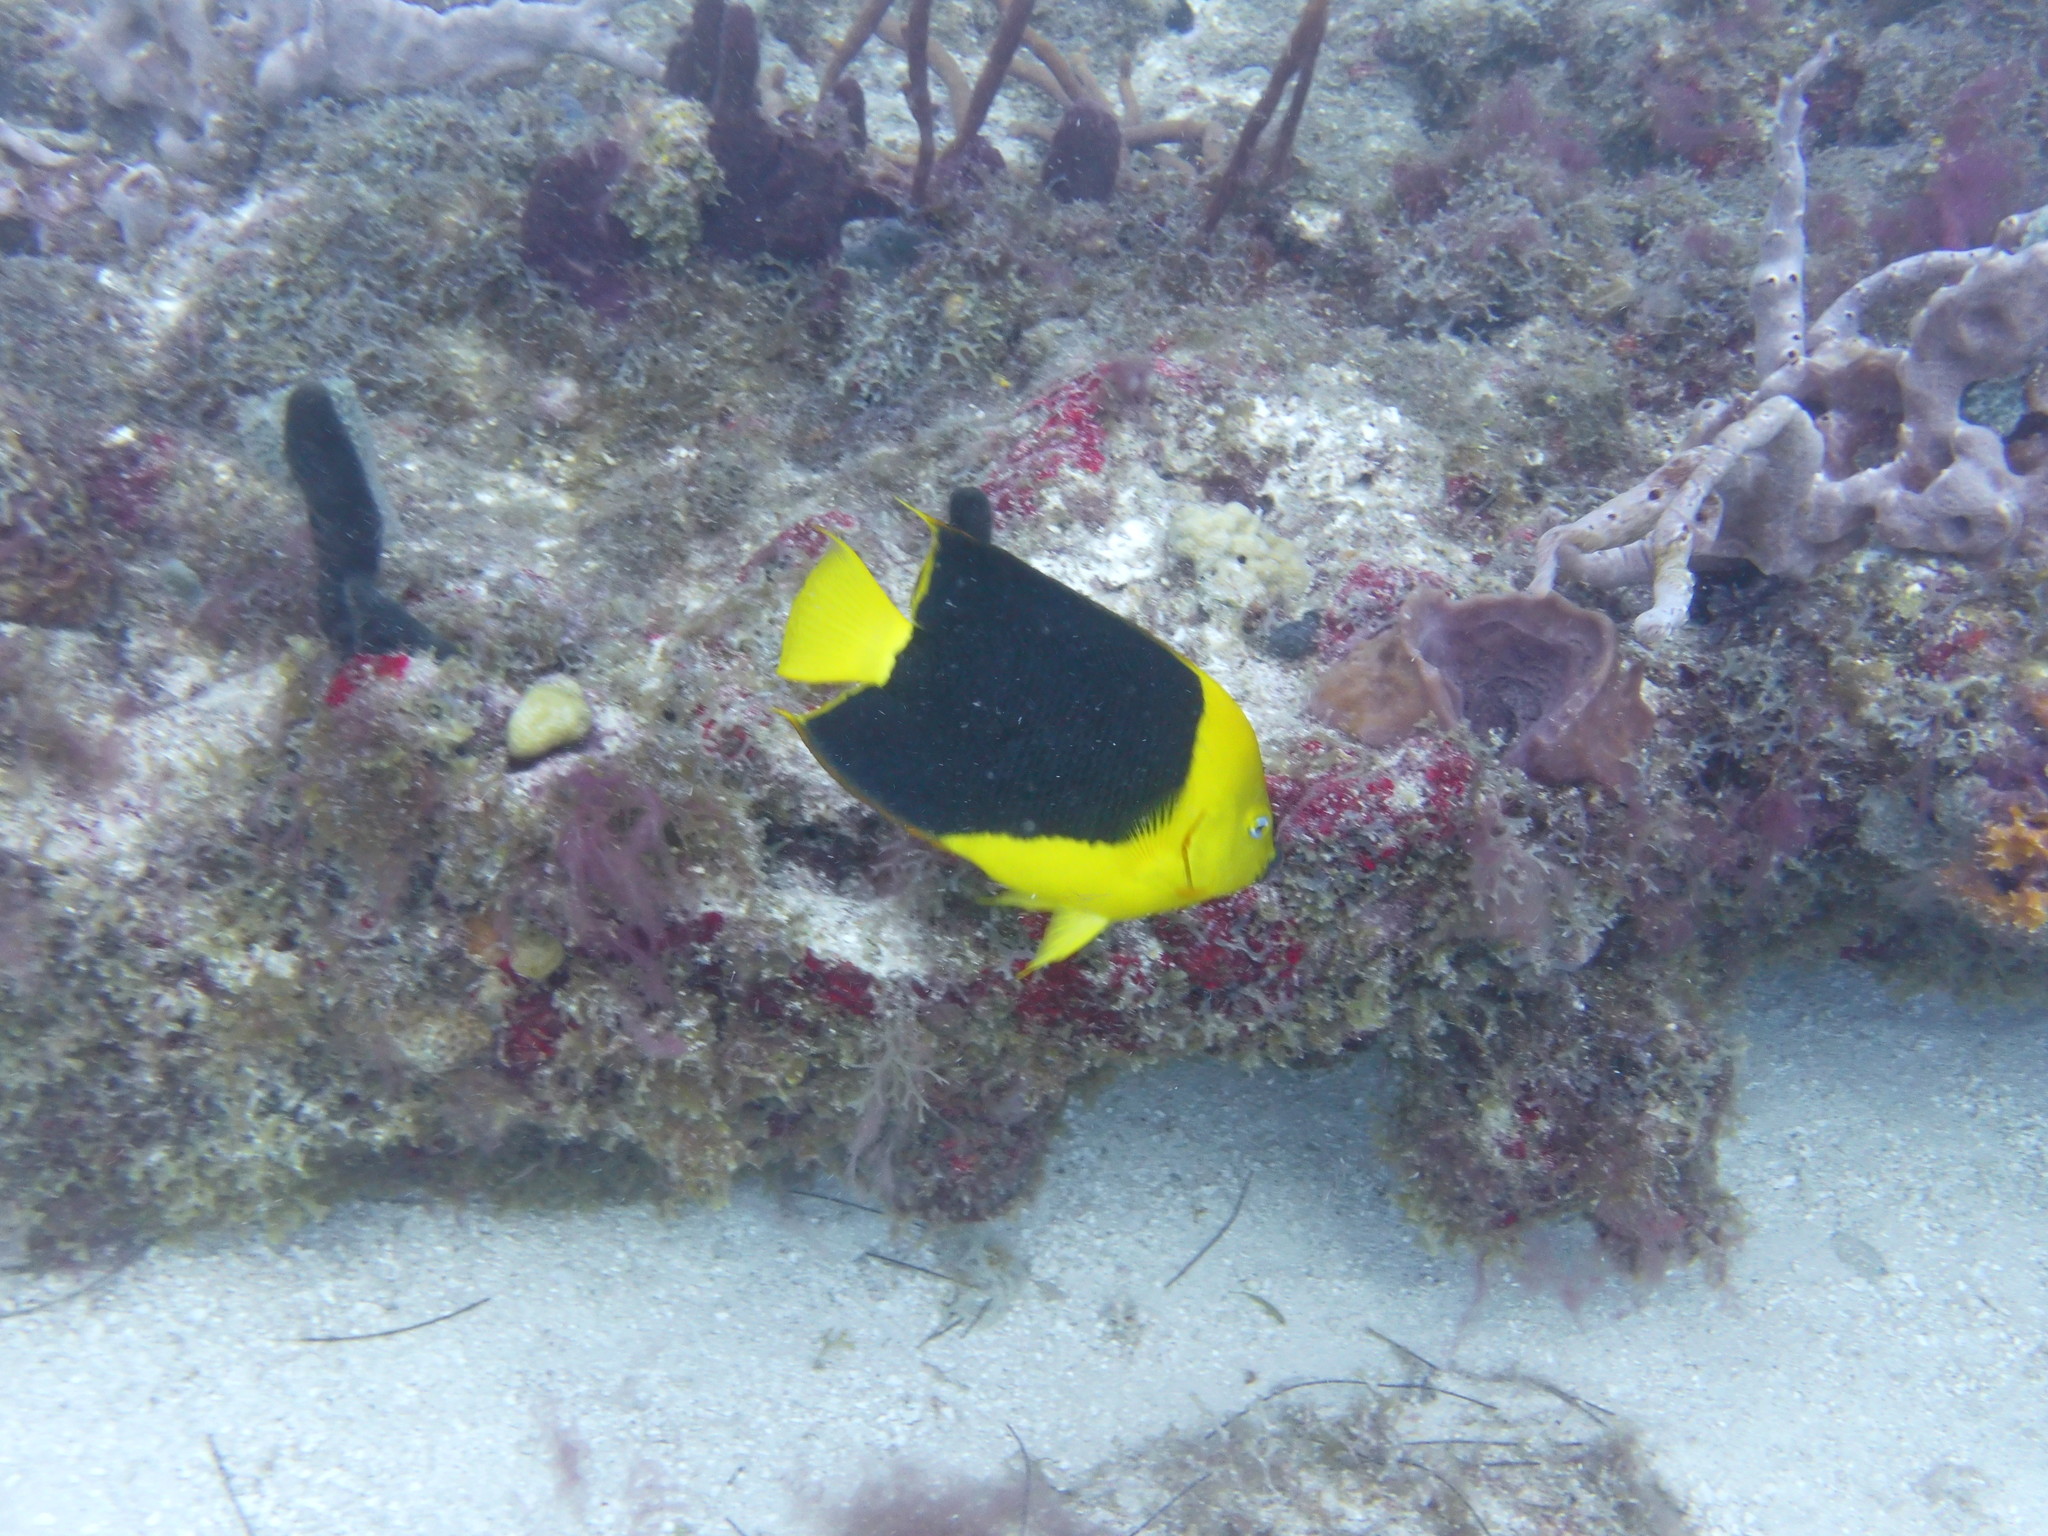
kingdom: Animalia
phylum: Chordata
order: Perciformes
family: Pomacanthidae
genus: Holacanthus
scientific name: Holacanthus tricolor
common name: Rock beauty
